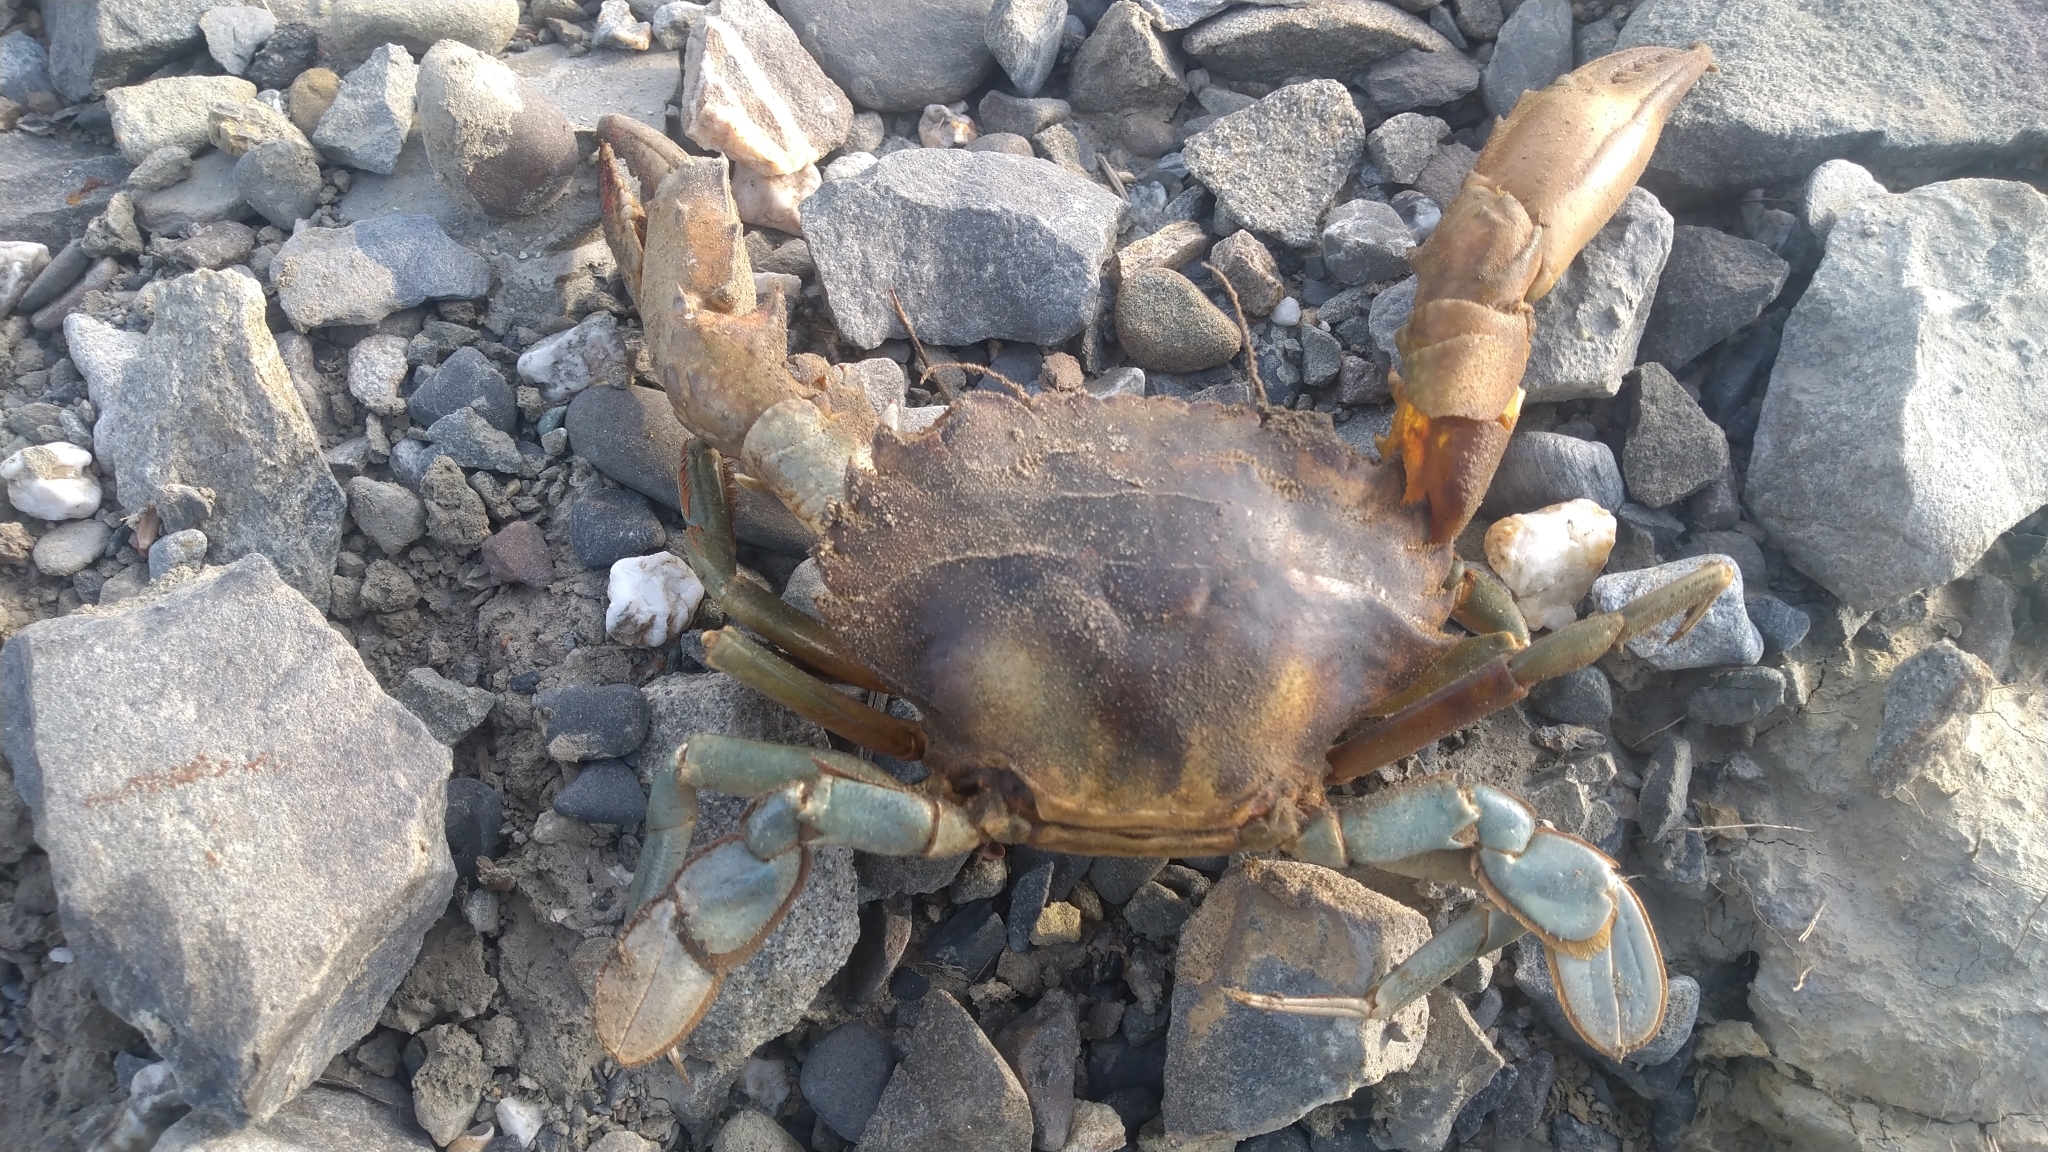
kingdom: Animalia
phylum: Arthropoda
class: Malacostraca
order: Decapoda
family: Portunidae
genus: Thalamita
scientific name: Thalamita crenata
